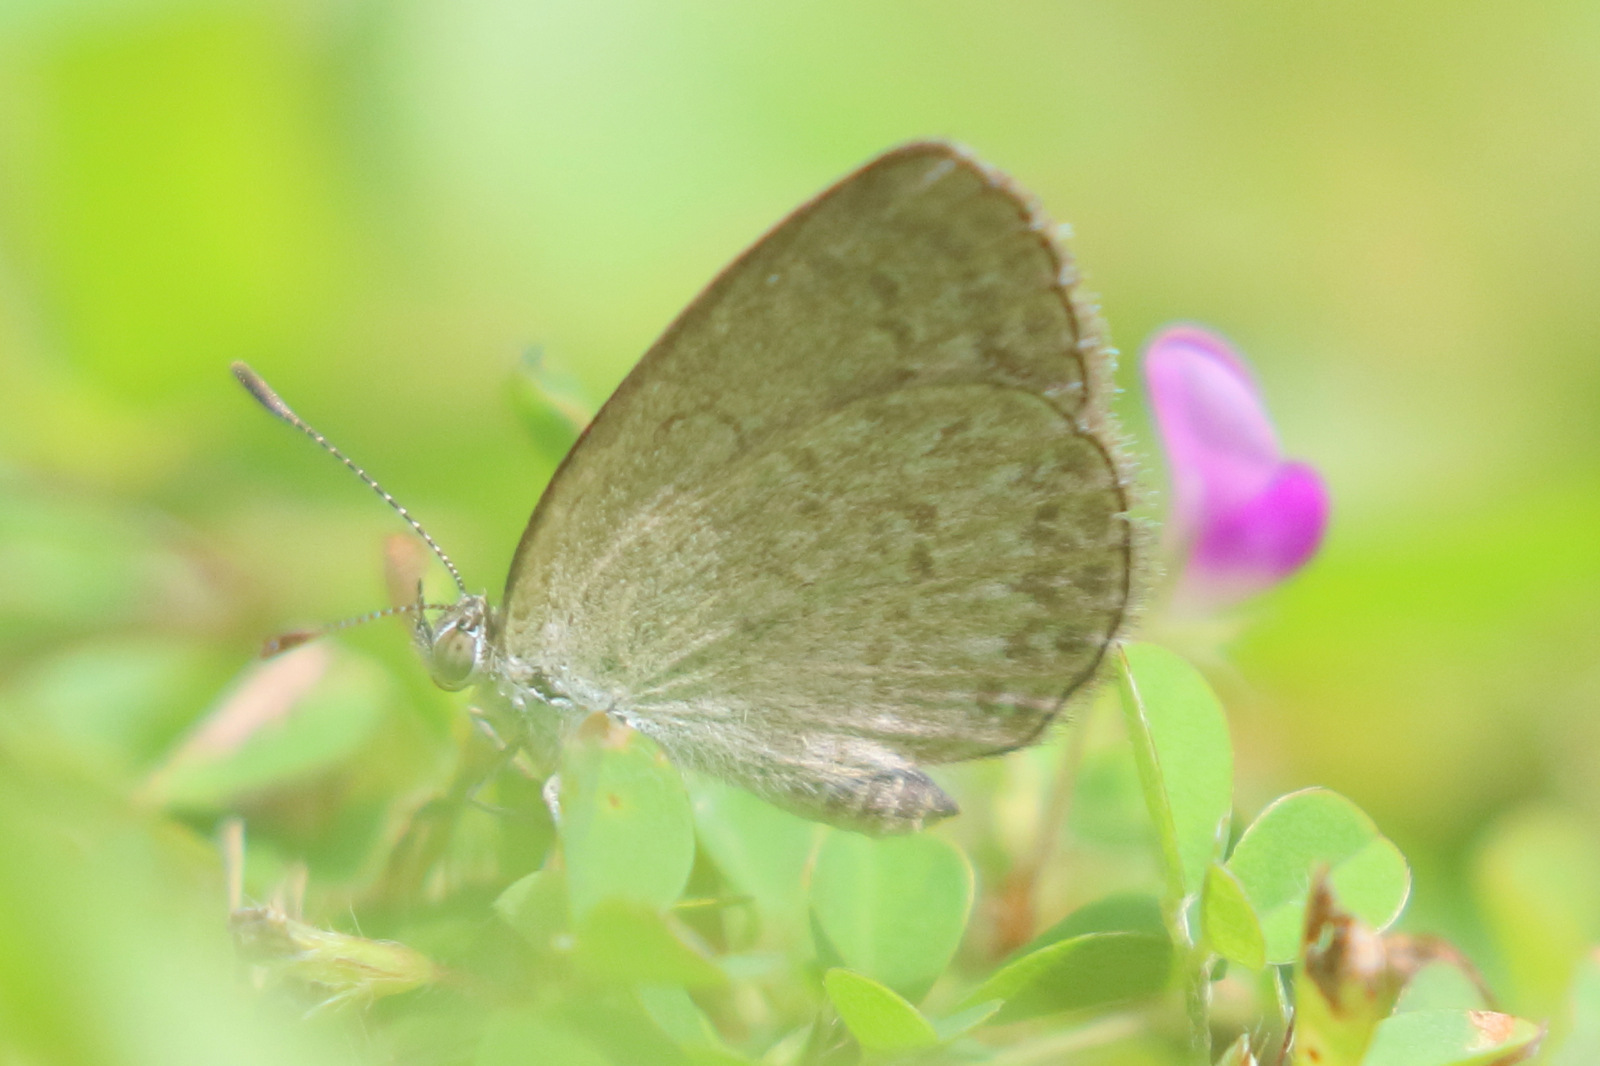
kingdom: Animalia
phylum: Arthropoda
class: Insecta
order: Lepidoptera
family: Lycaenidae
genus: Zizina
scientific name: Zizina otis
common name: Lesser grass blue
